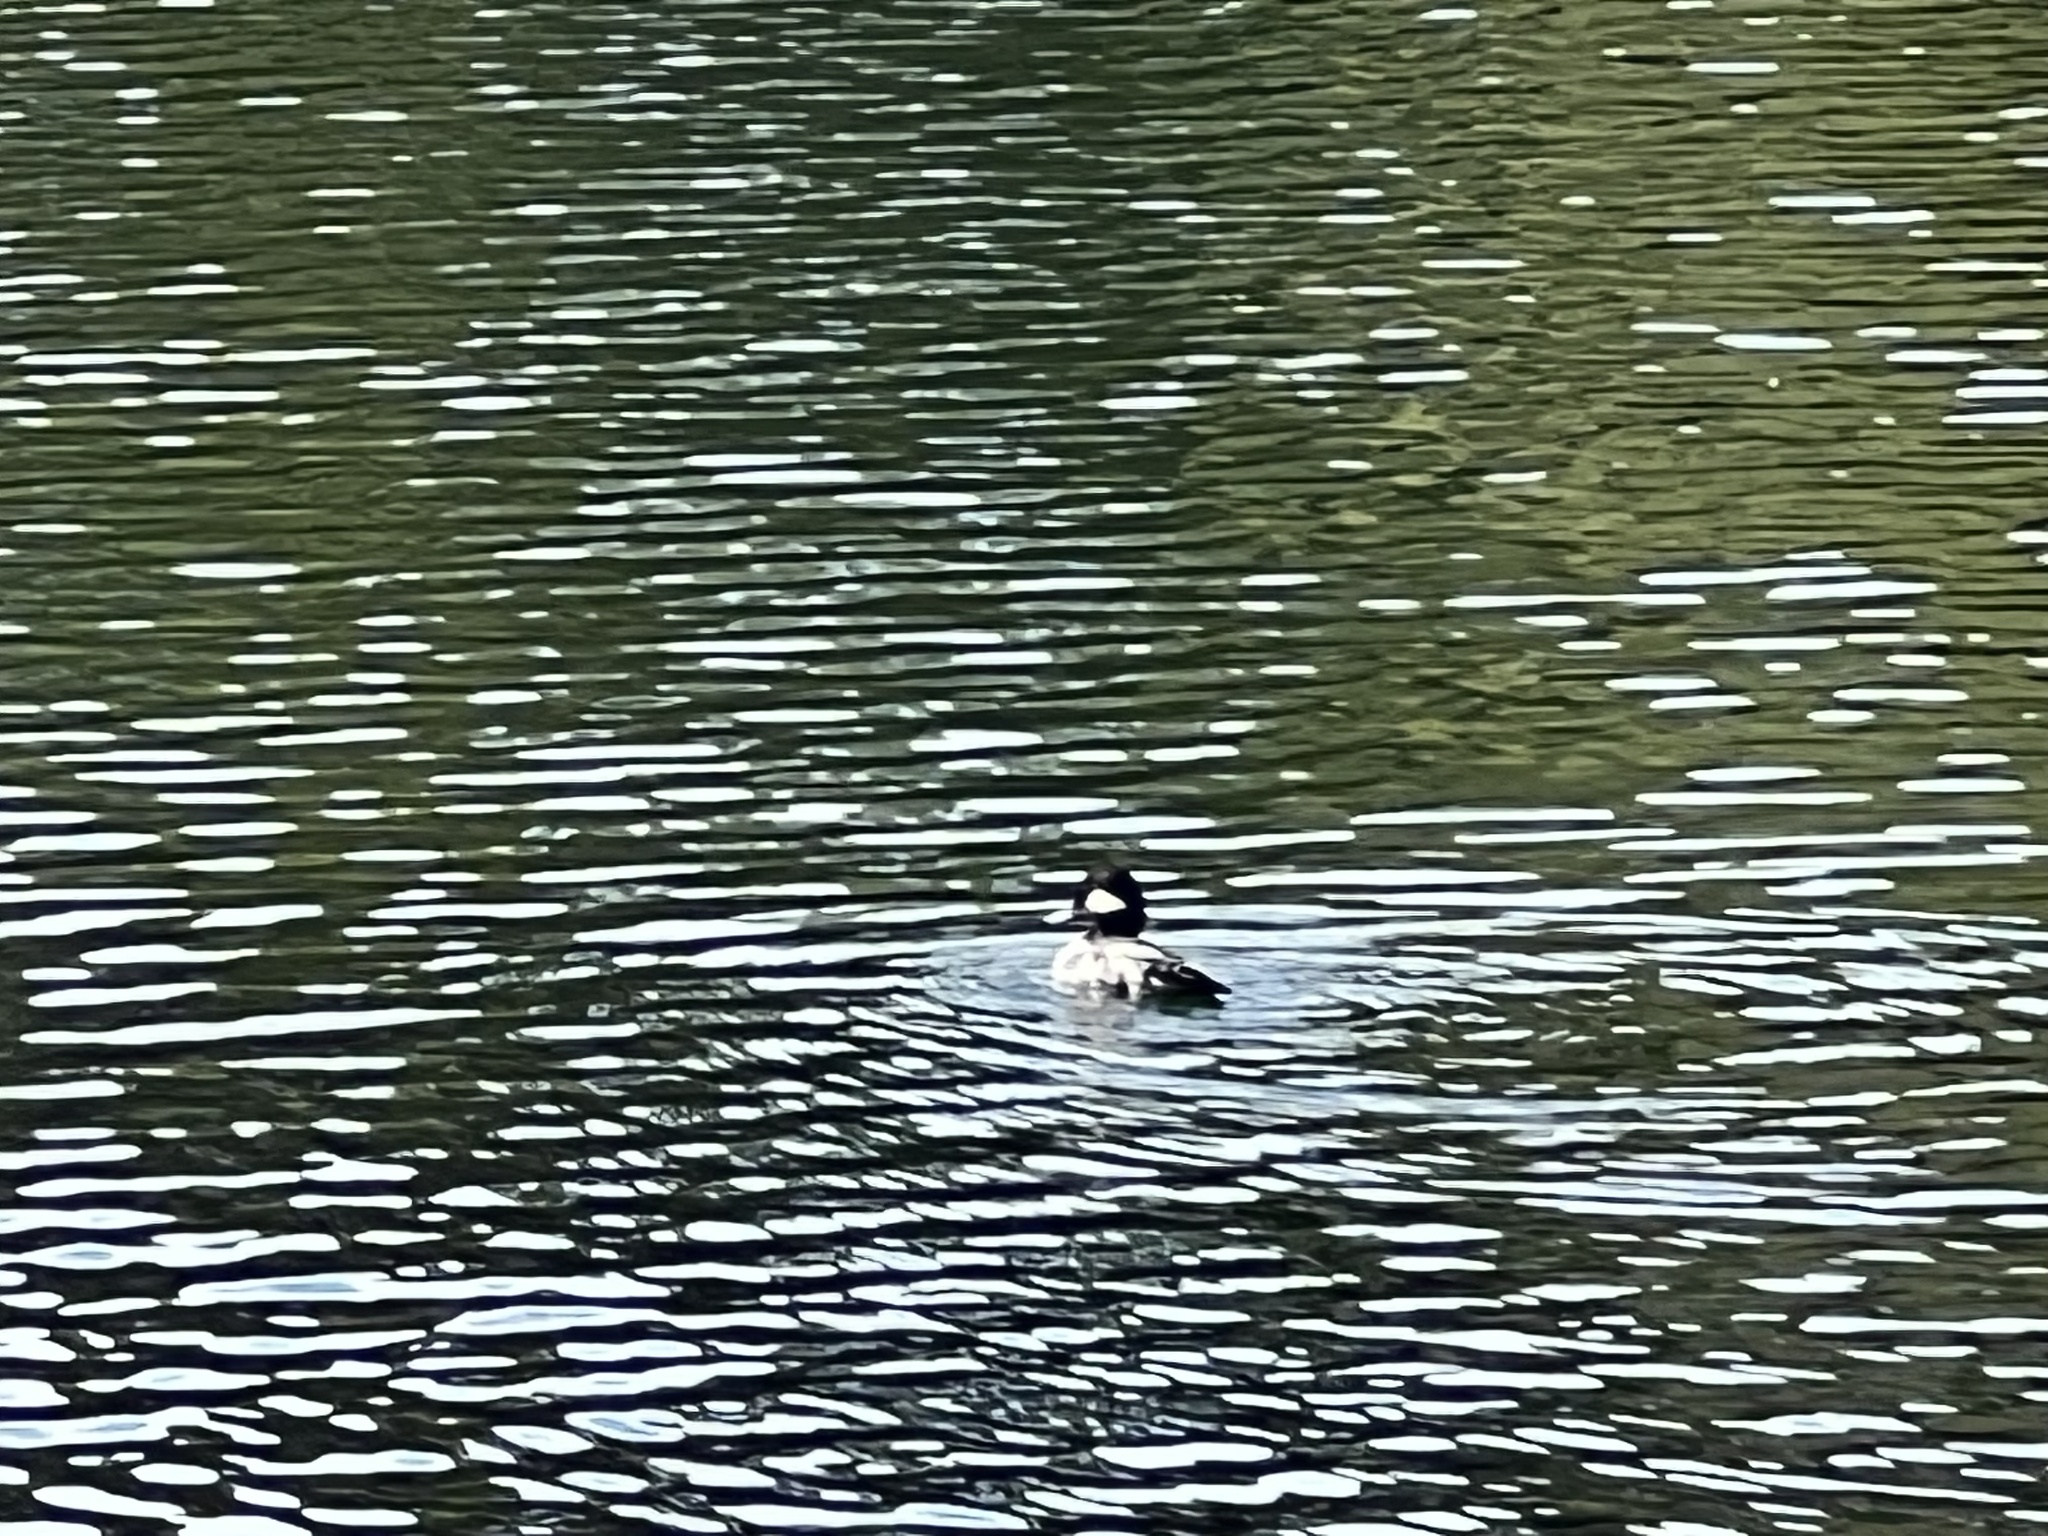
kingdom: Animalia
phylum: Chordata
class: Aves
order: Anseriformes
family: Anatidae
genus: Lophodytes
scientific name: Lophodytes cucullatus
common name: Hooded merganser
